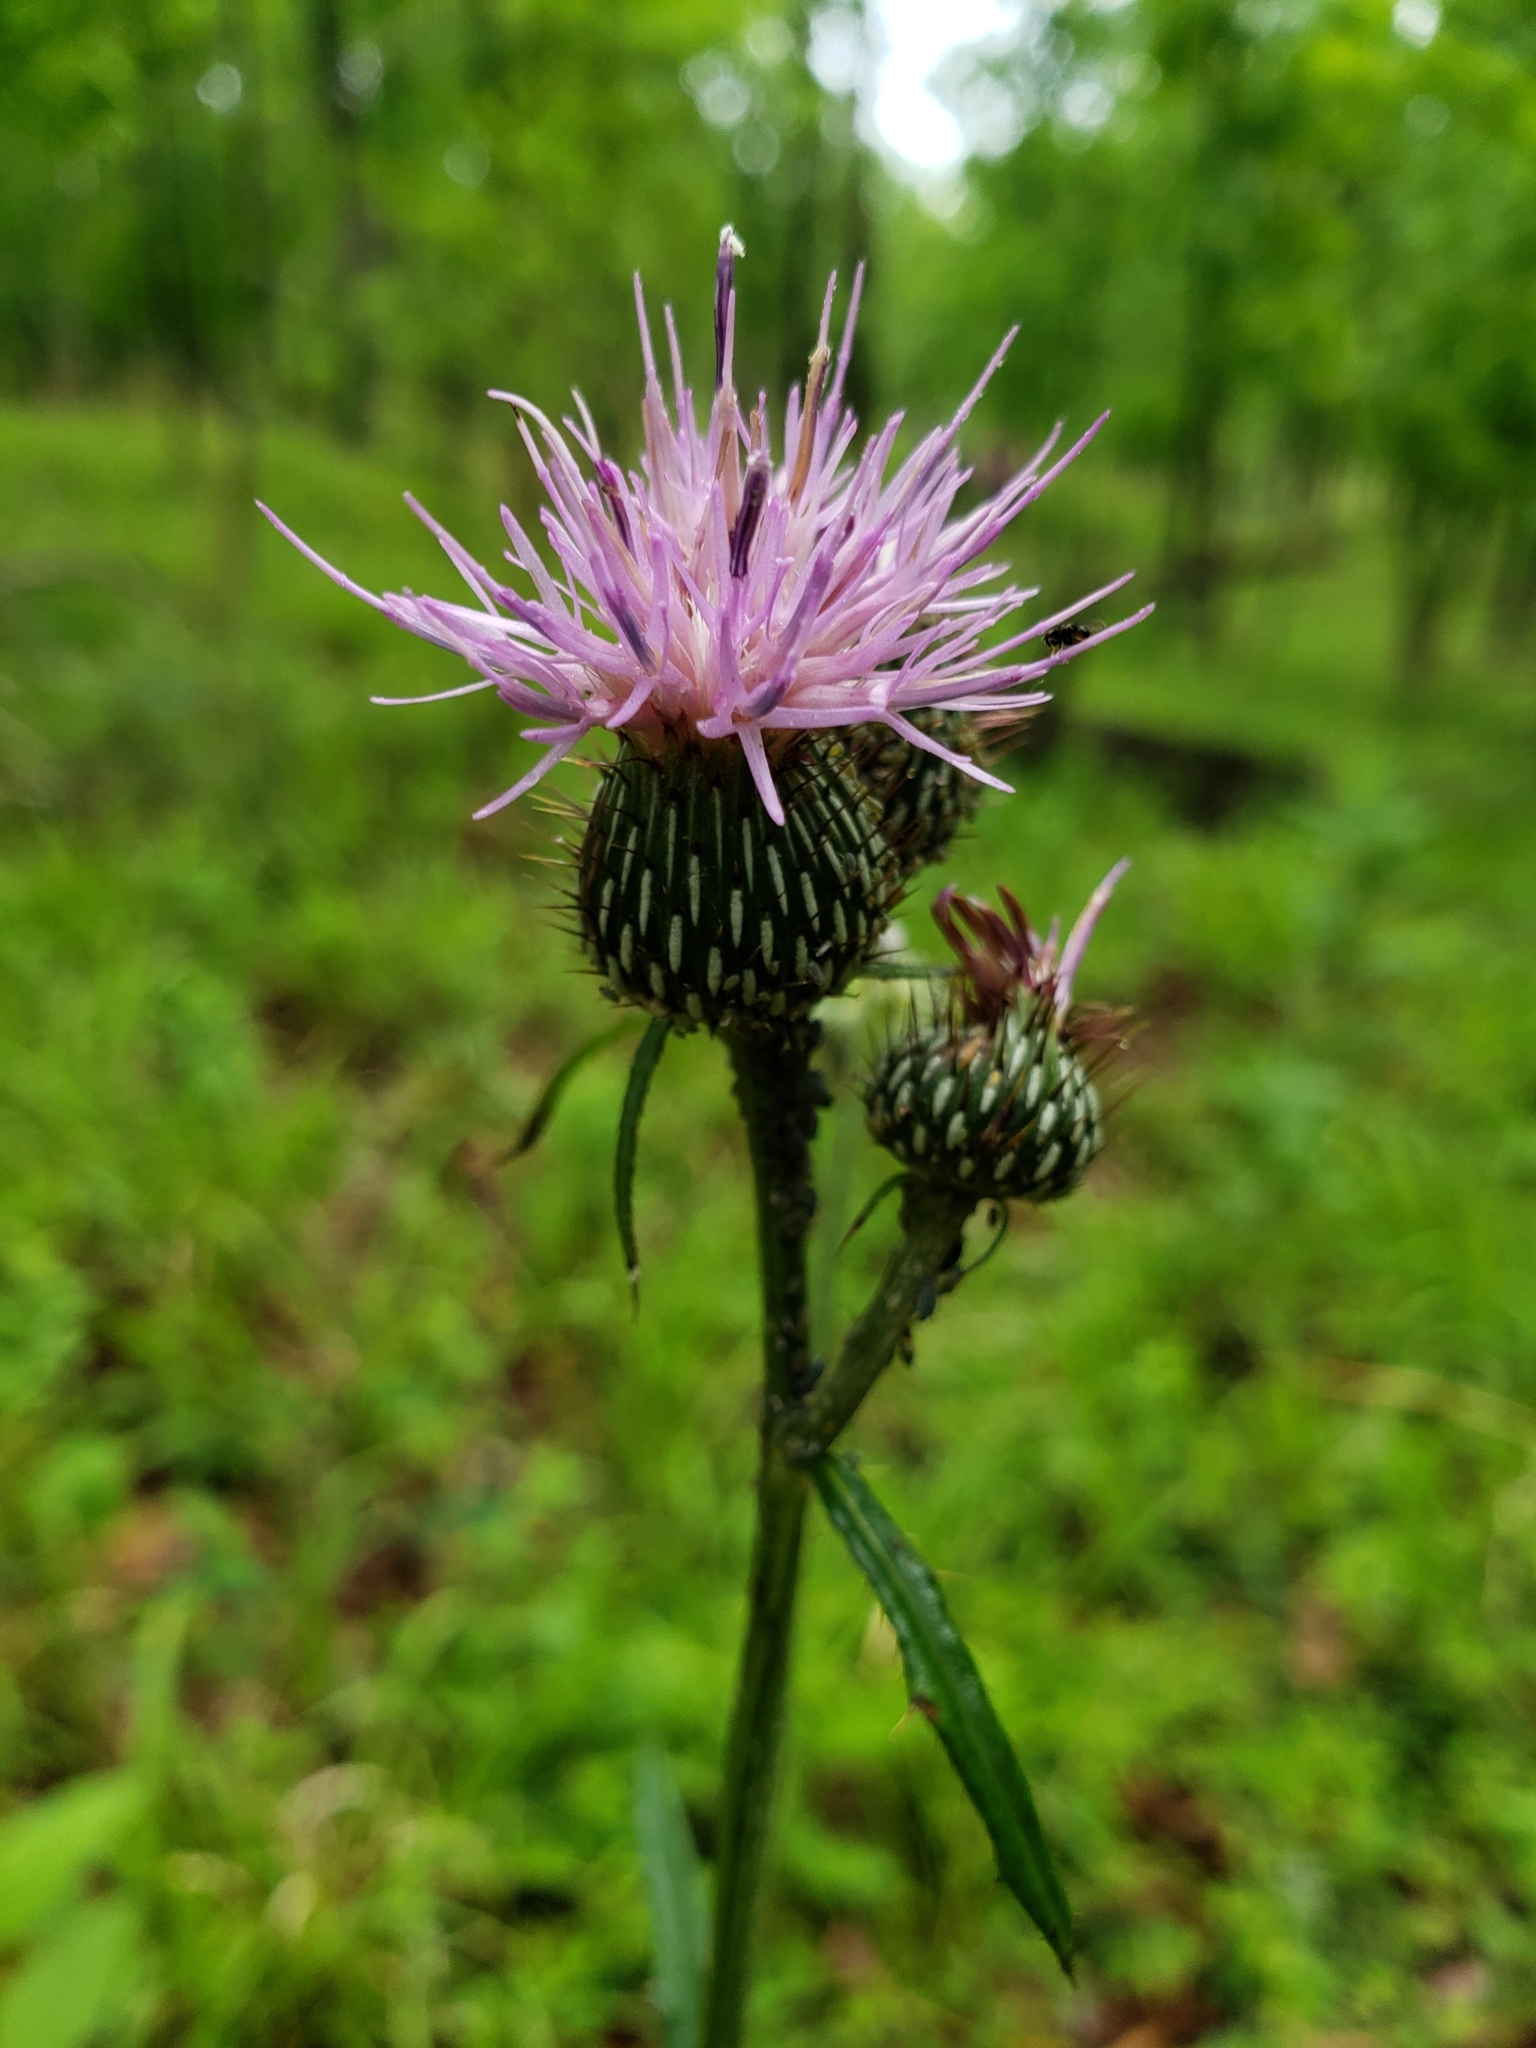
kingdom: Plantae
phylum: Tracheophyta
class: Magnoliopsida
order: Asterales
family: Asteraceae
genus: Cirsium
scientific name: Cirsium carolinianum
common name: Carolina thistle
